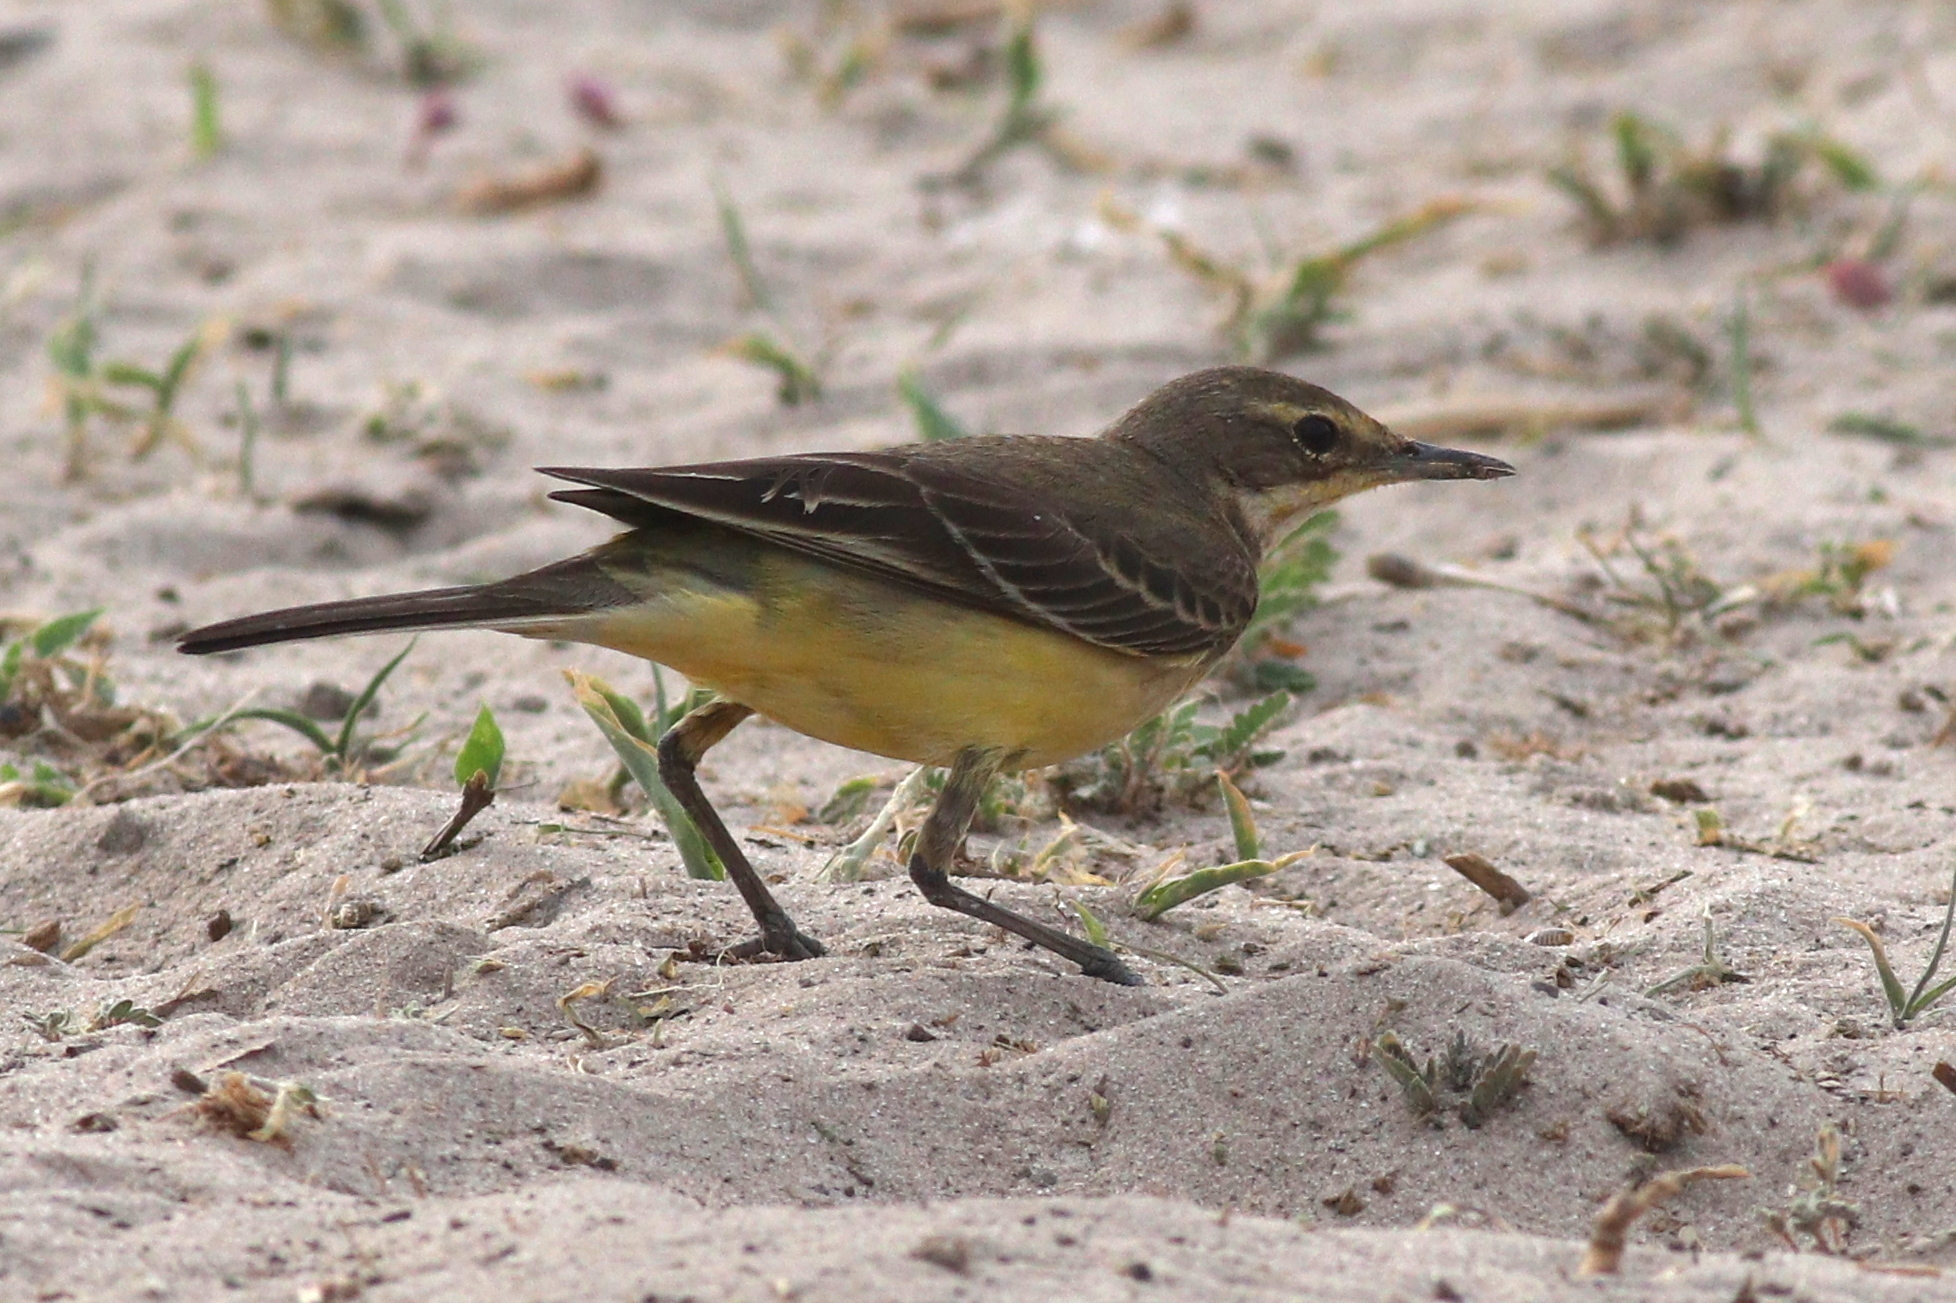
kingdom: Animalia
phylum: Chordata
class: Aves
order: Passeriformes
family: Motacillidae
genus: Motacilla
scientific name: Motacilla flava
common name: Western yellow wagtail
